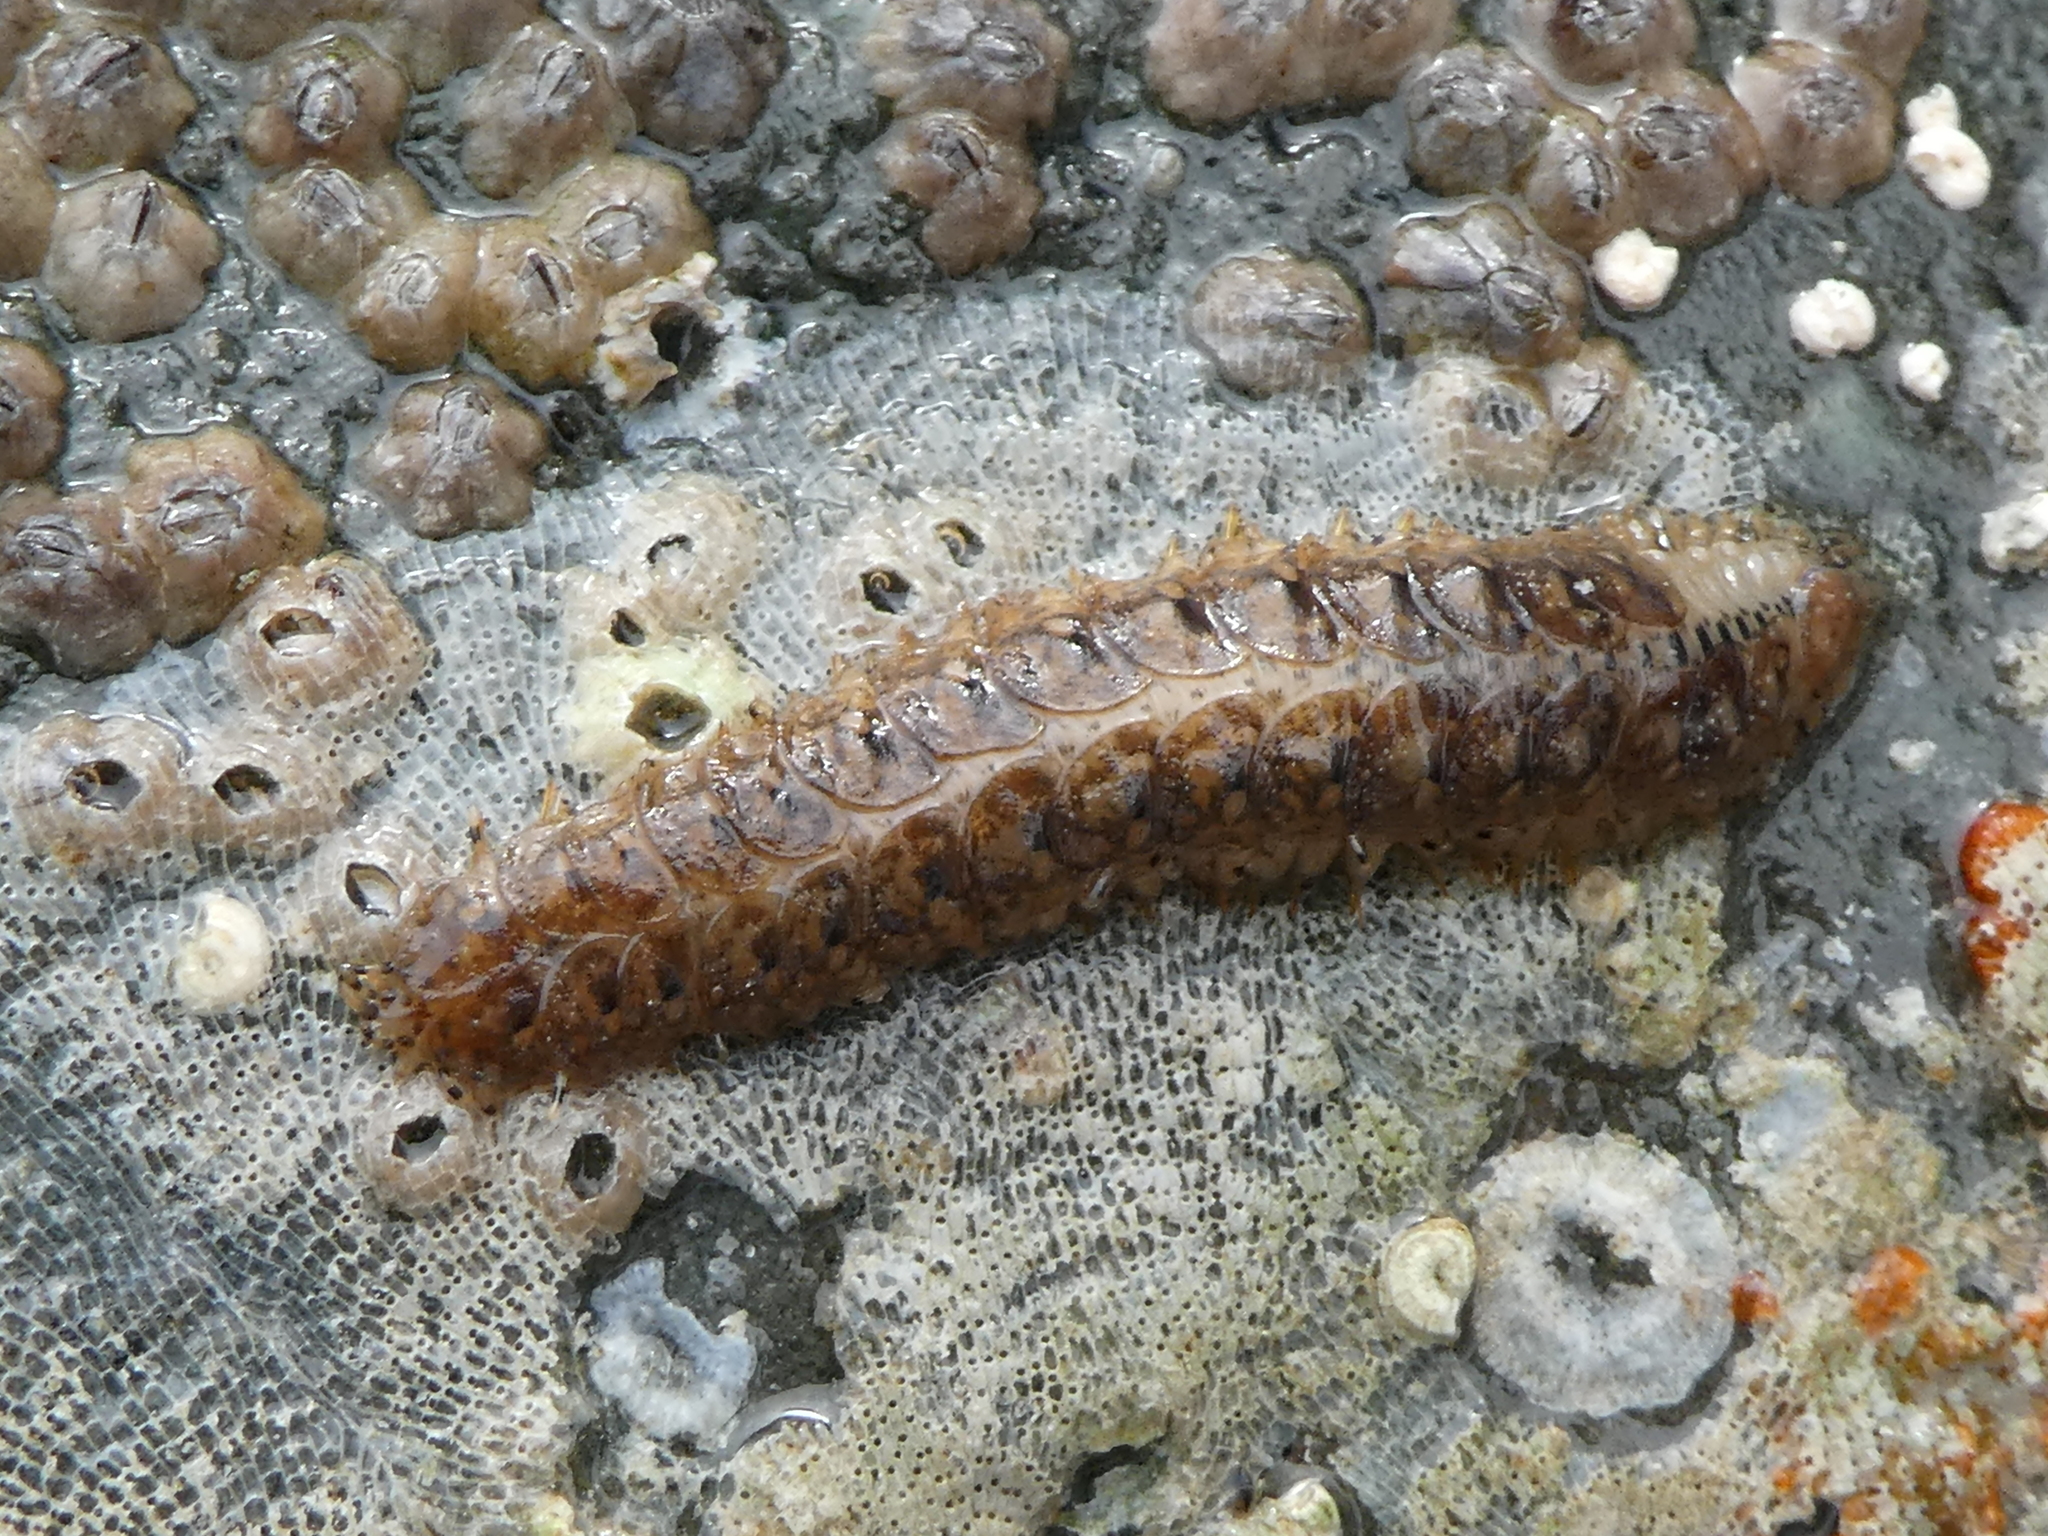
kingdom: Animalia
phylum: Annelida
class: Polychaeta
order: Phyllodocida
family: Polynoidae
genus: Halosydna
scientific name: Halosydna brevisetosa
